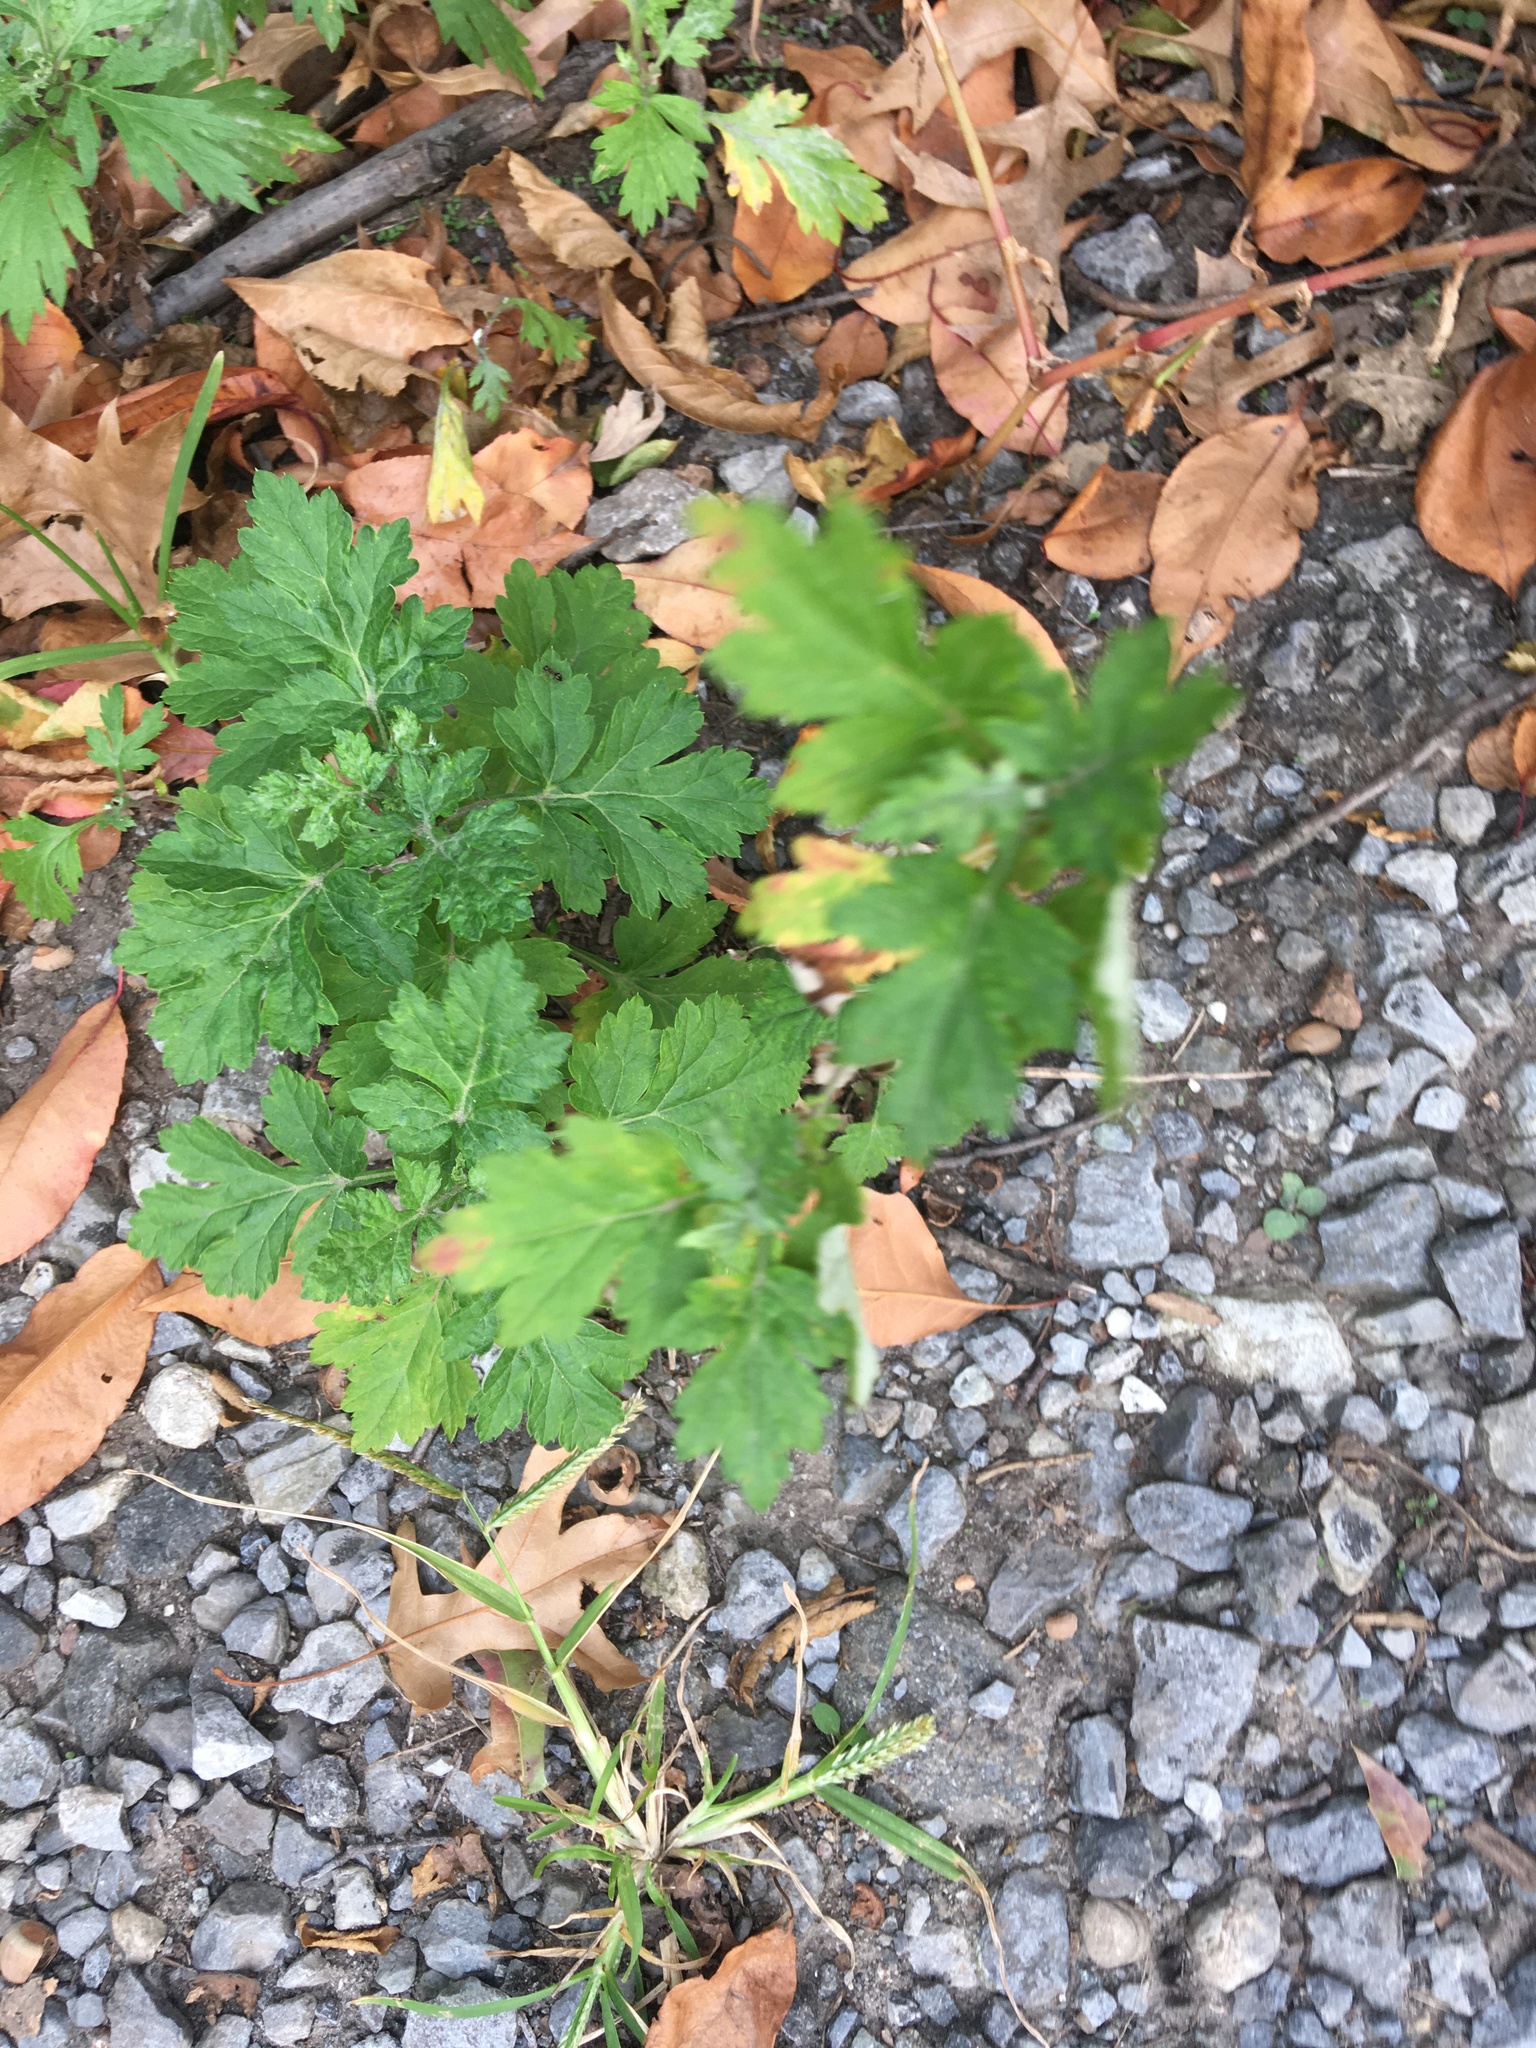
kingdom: Plantae
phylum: Tracheophyta
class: Magnoliopsida
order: Asterales
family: Asteraceae
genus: Artemisia
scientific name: Artemisia vulgaris
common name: Mugwort
